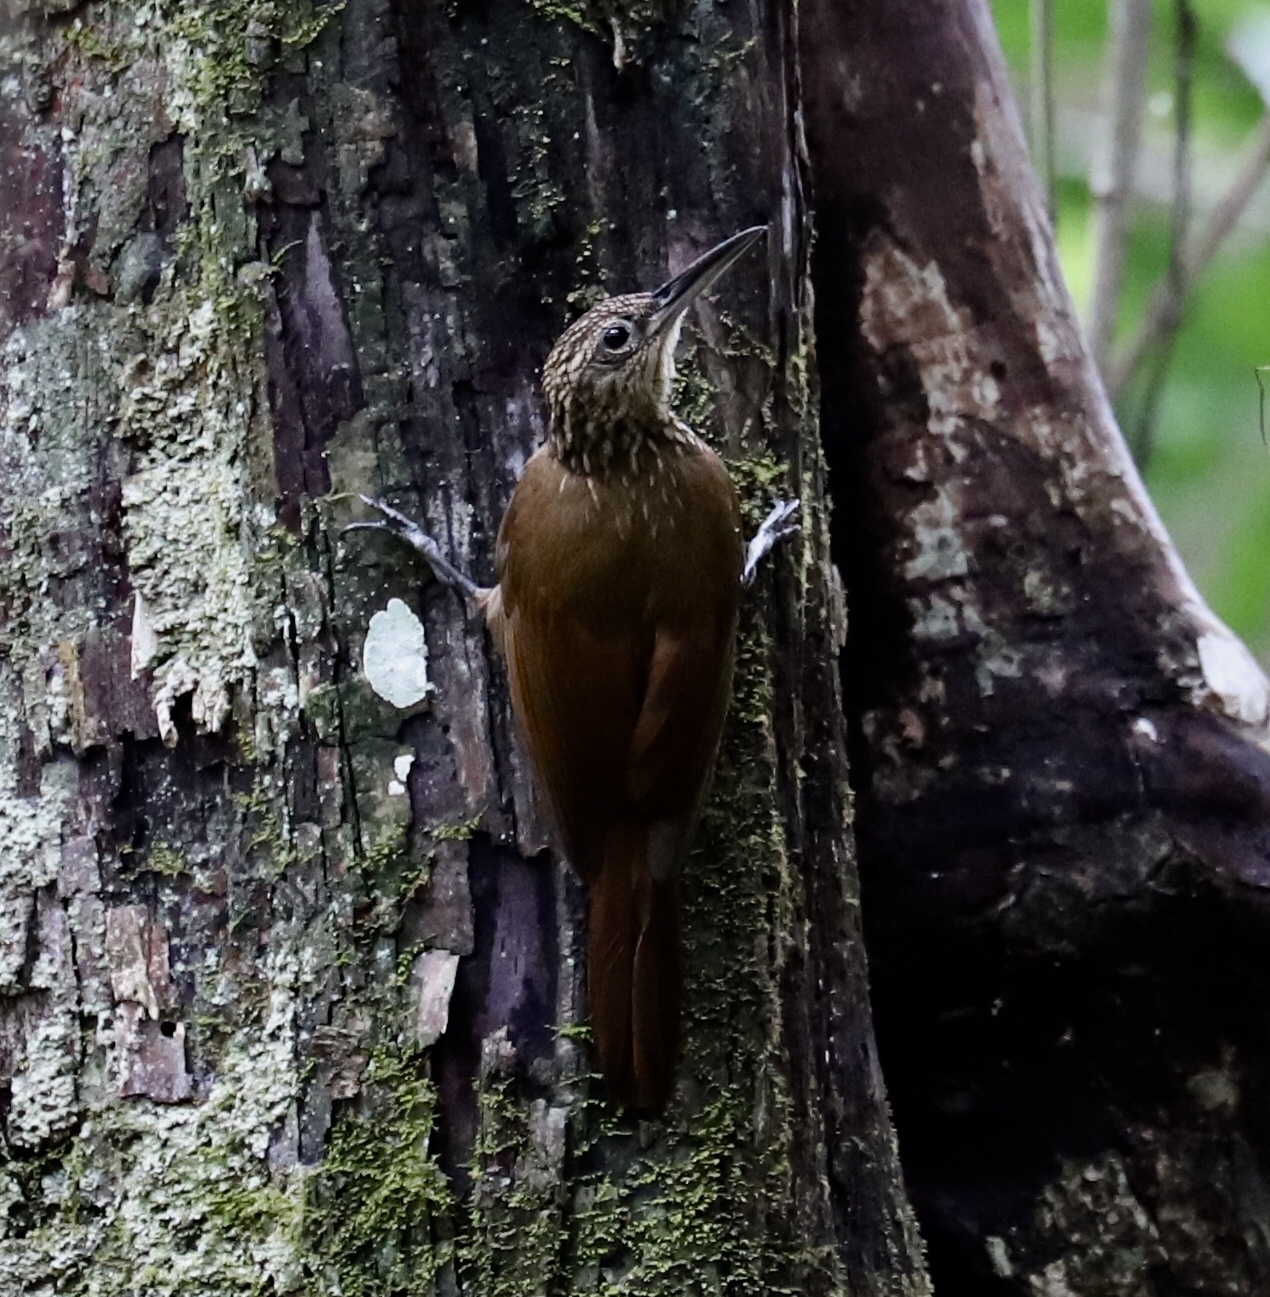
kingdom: Animalia
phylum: Chordata
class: Aves
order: Passeriformes
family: Furnariidae
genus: Xiphorhynchus
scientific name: Xiphorhynchus susurrans
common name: Cocoa woodcreeper
